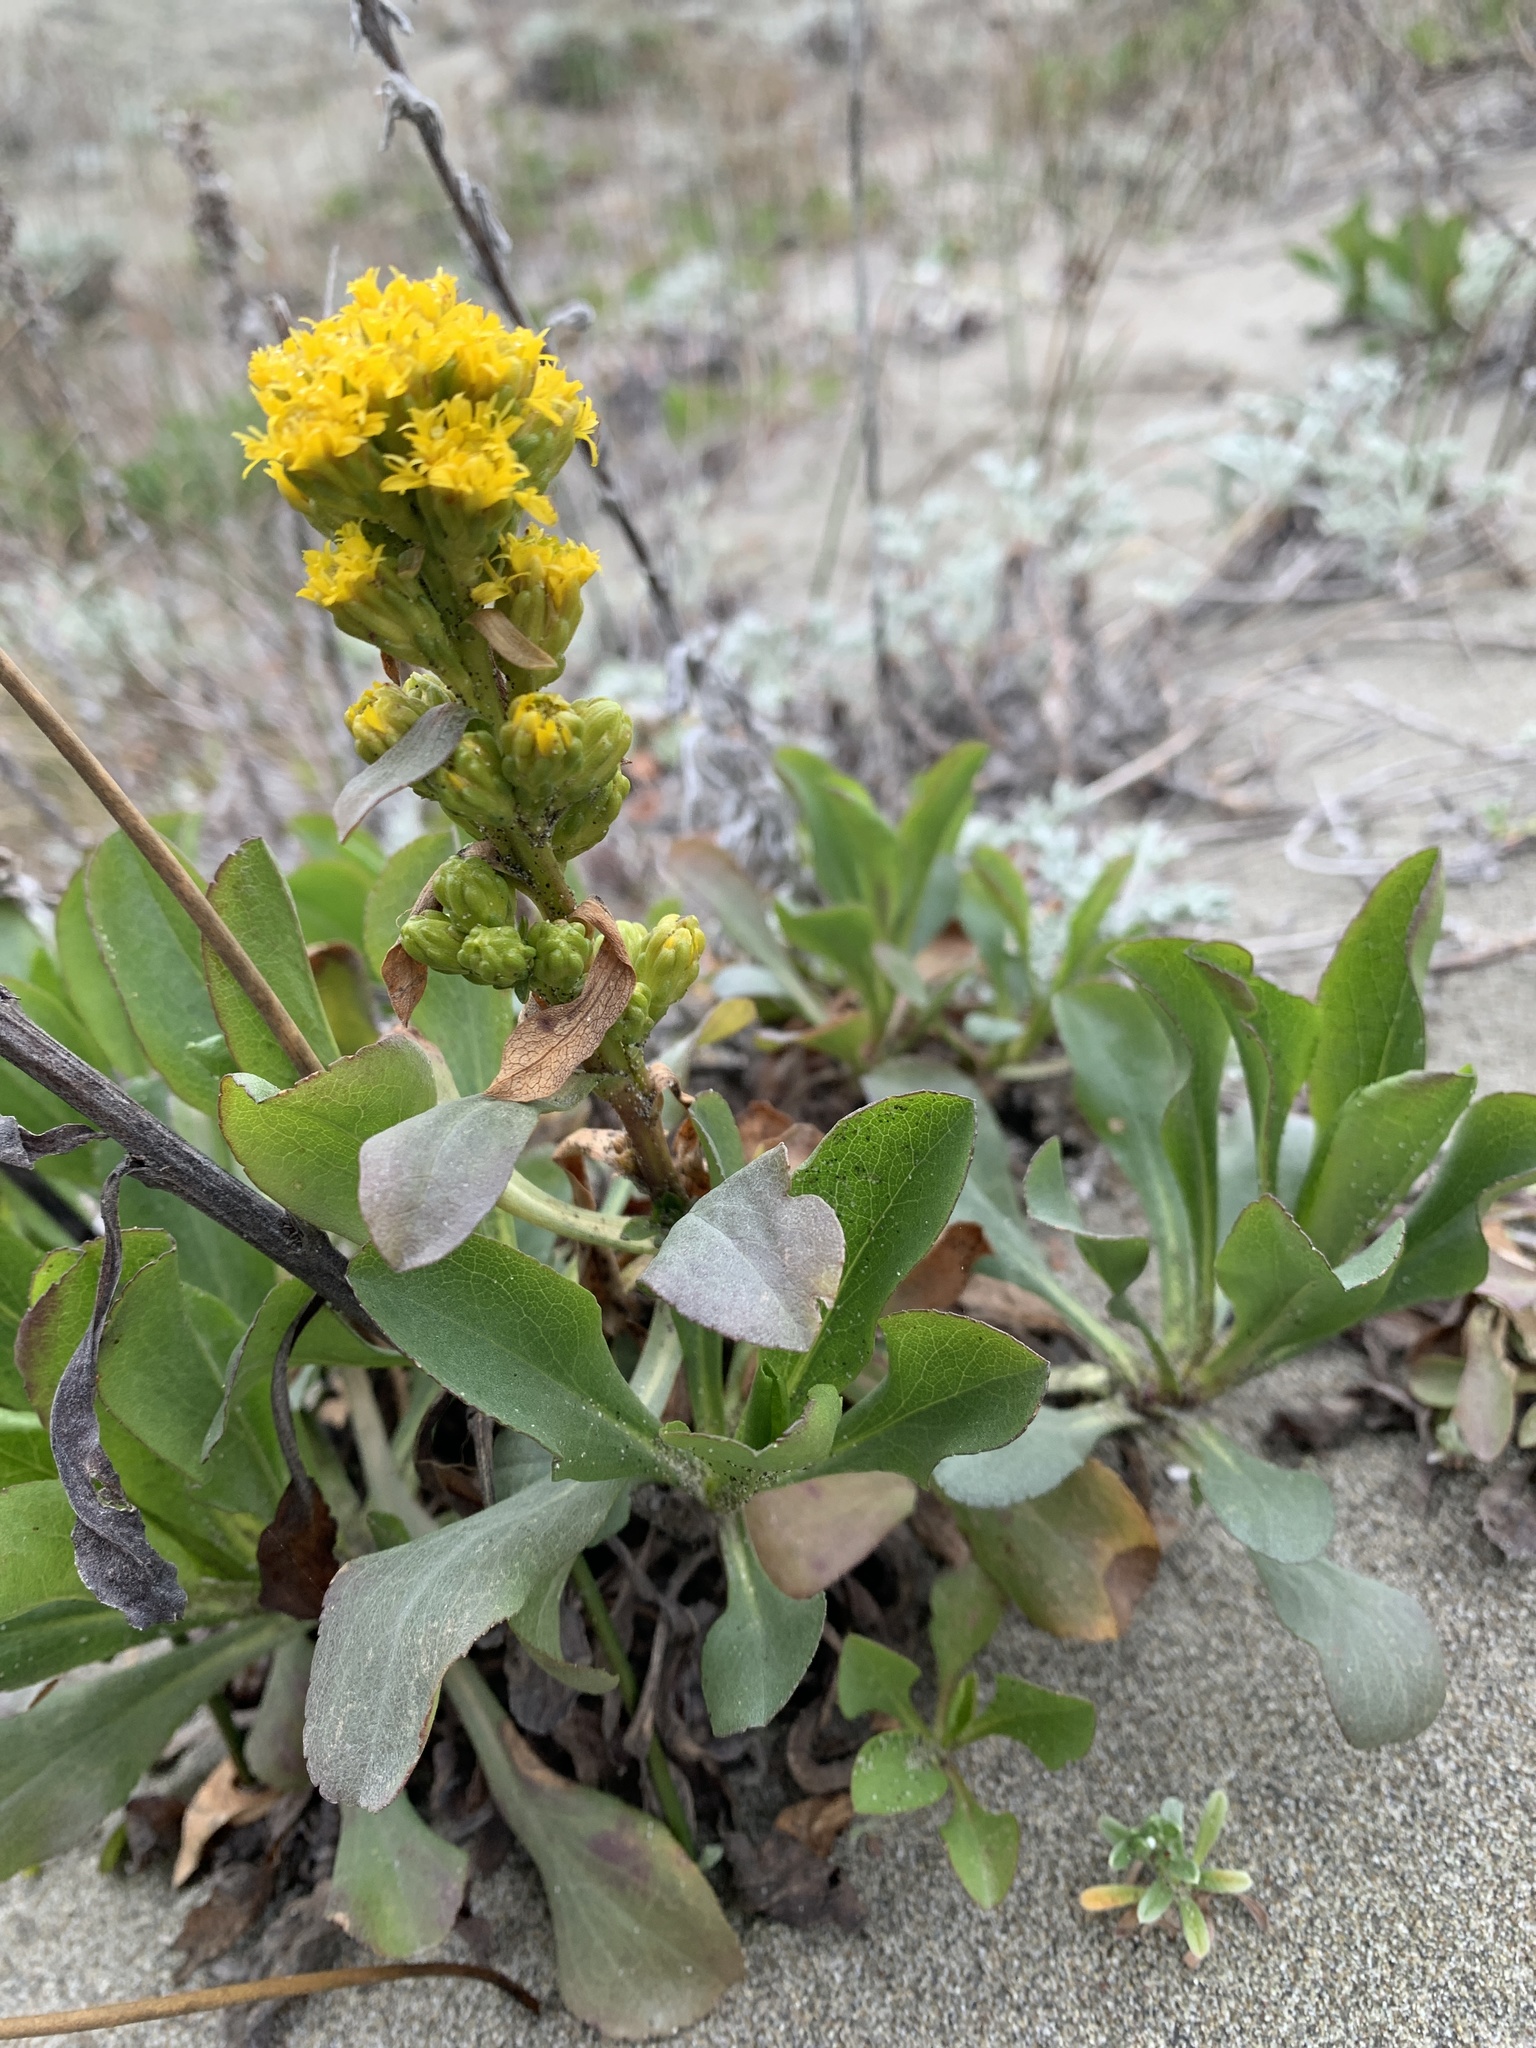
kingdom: Plantae
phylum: Tracheophyta
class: Magnoliopsida
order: Asterales
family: Asteraceae
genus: Solidago
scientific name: Solidago spathulata
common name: Coast goldenrod
